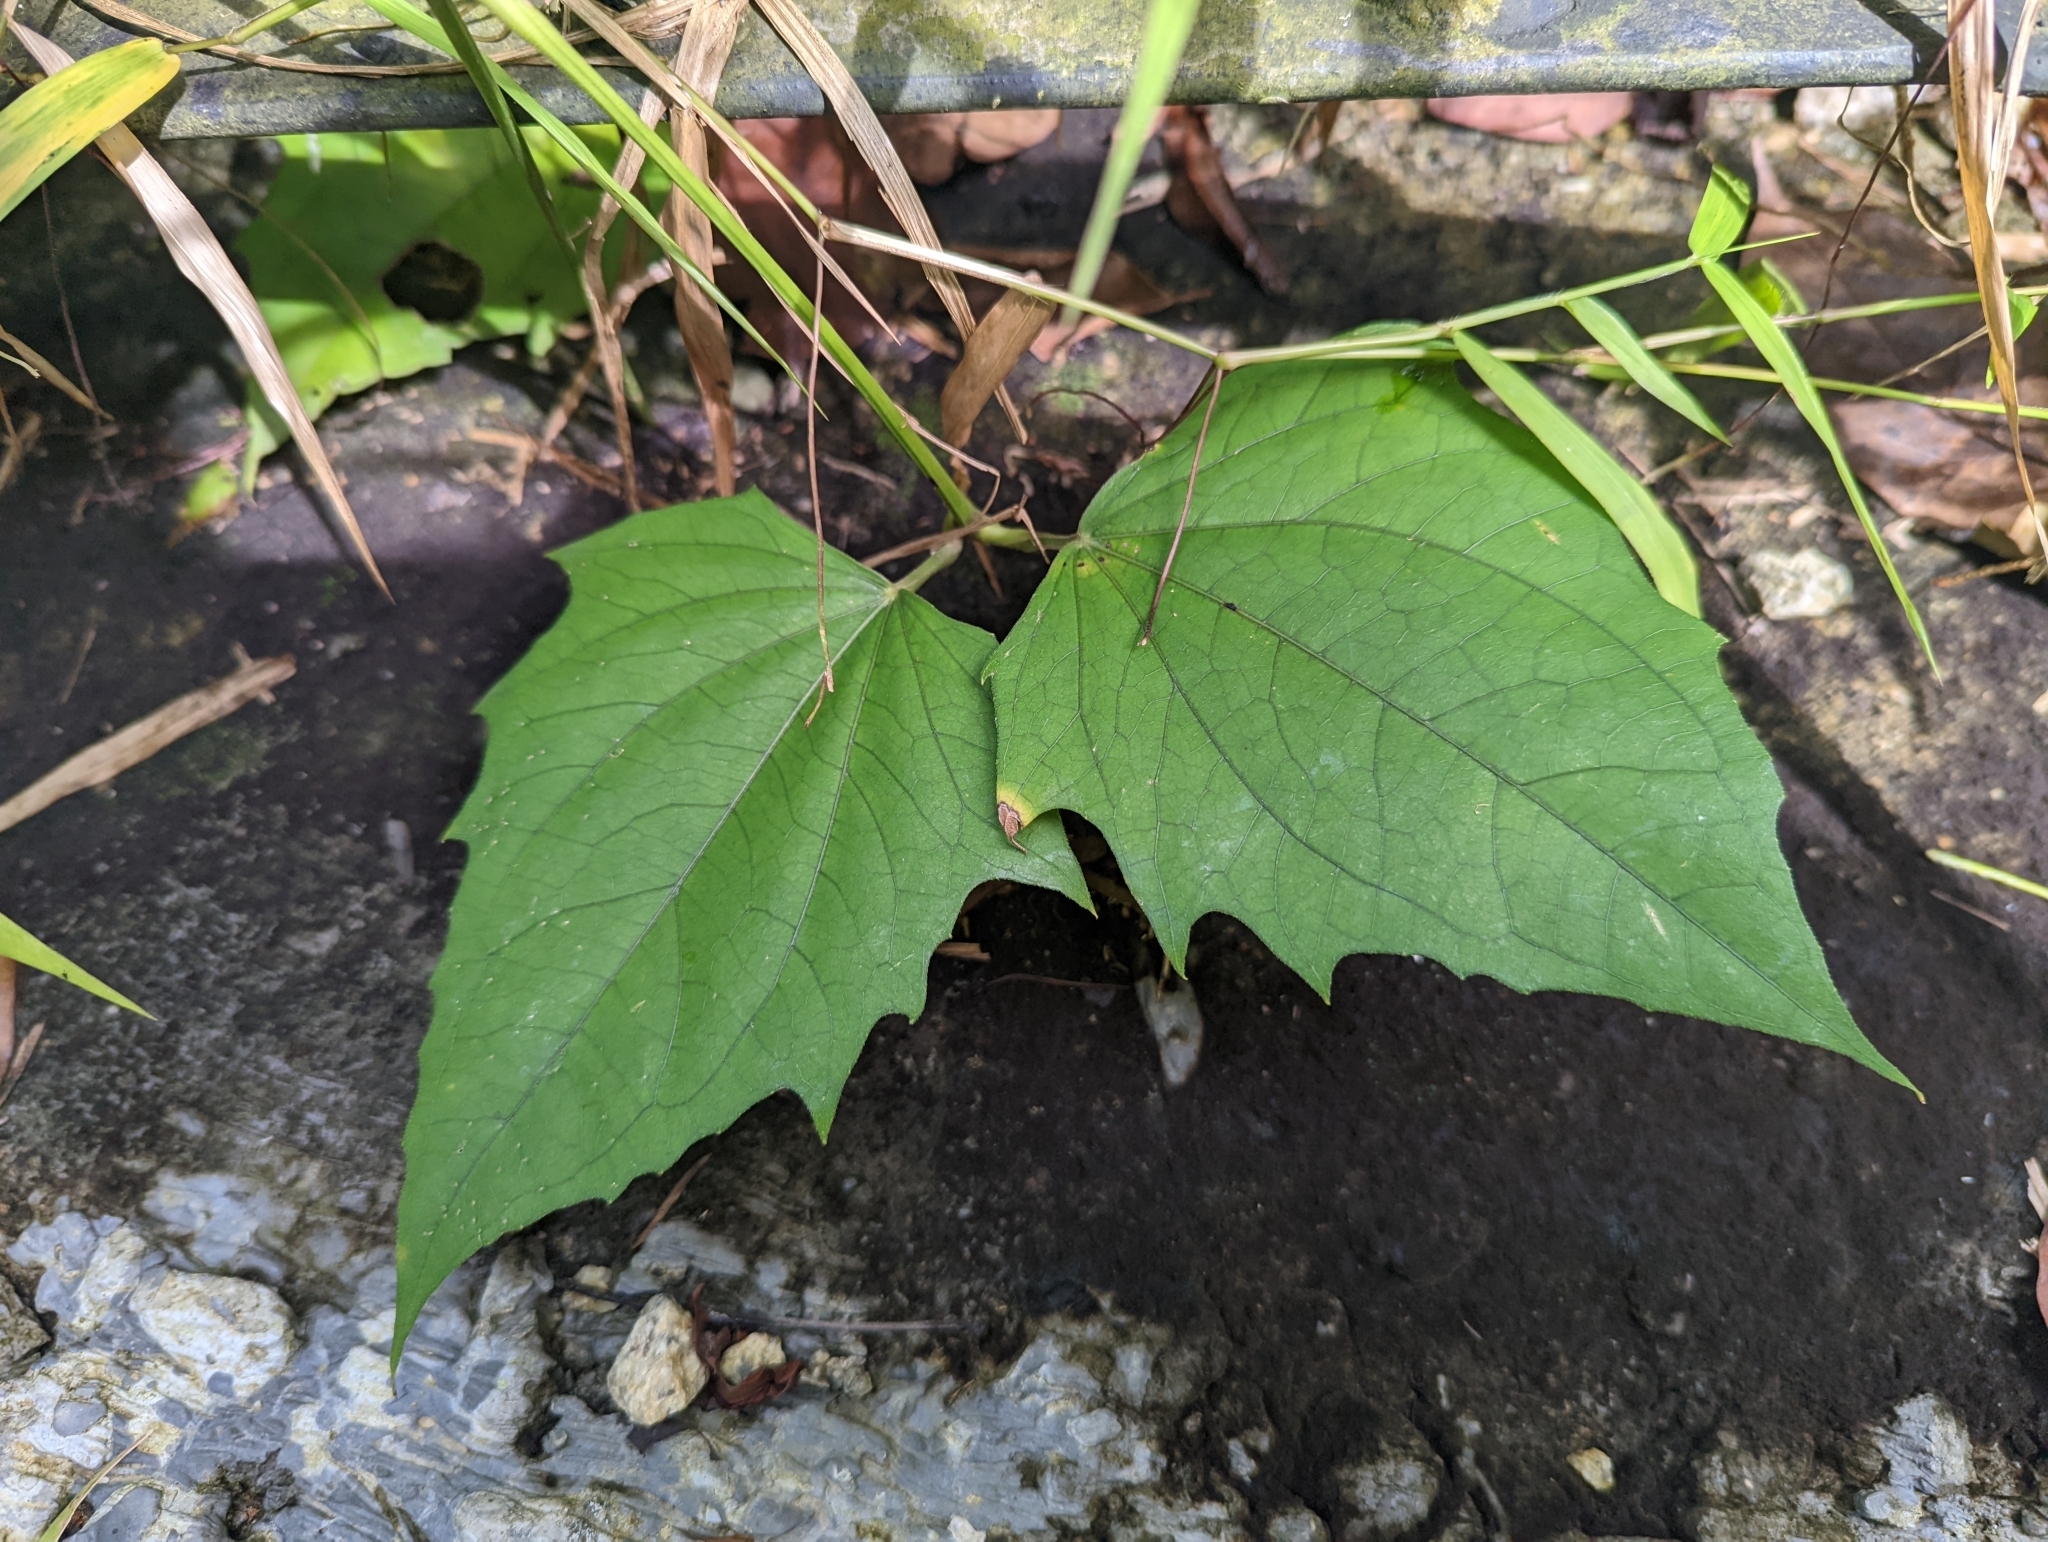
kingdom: Plantae
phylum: Tracheophyta
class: Magnoliopsida
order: Lamiales
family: Acanthaceae
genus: Thunbergia
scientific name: Thunbergia laurifolia
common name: Laurel-leaved thunbergia
